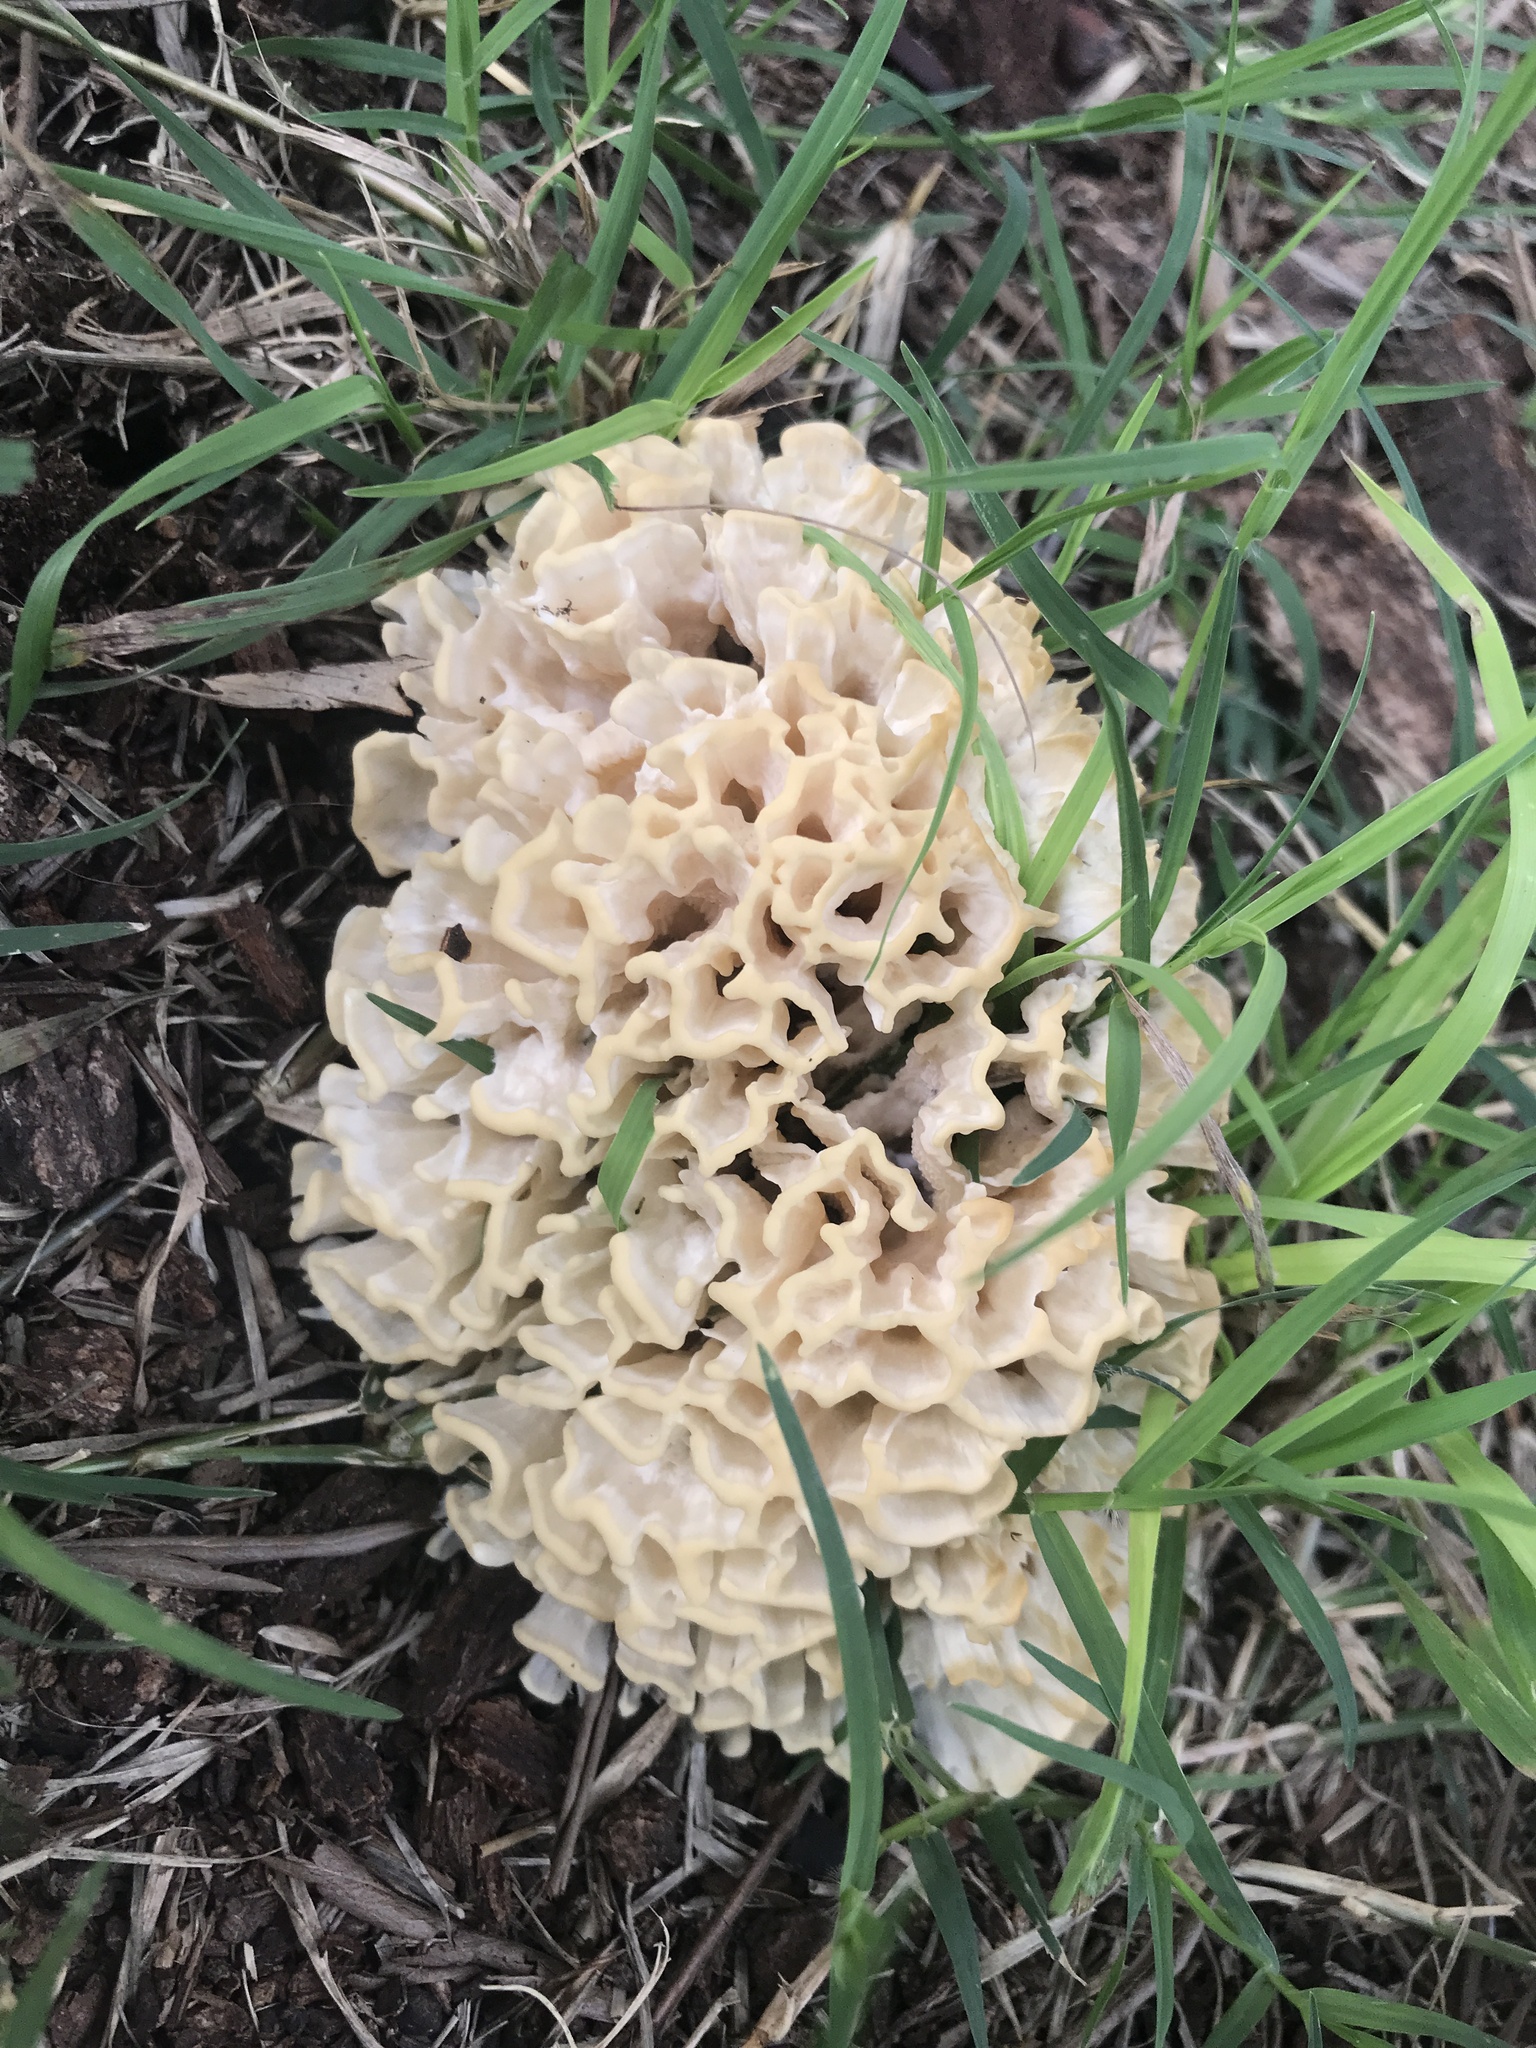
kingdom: Fungi
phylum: Basidiomycota
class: Agaricomycetes
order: Polyporales
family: Irpicaceae
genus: Irpex
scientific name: Irpex rosettiformis
